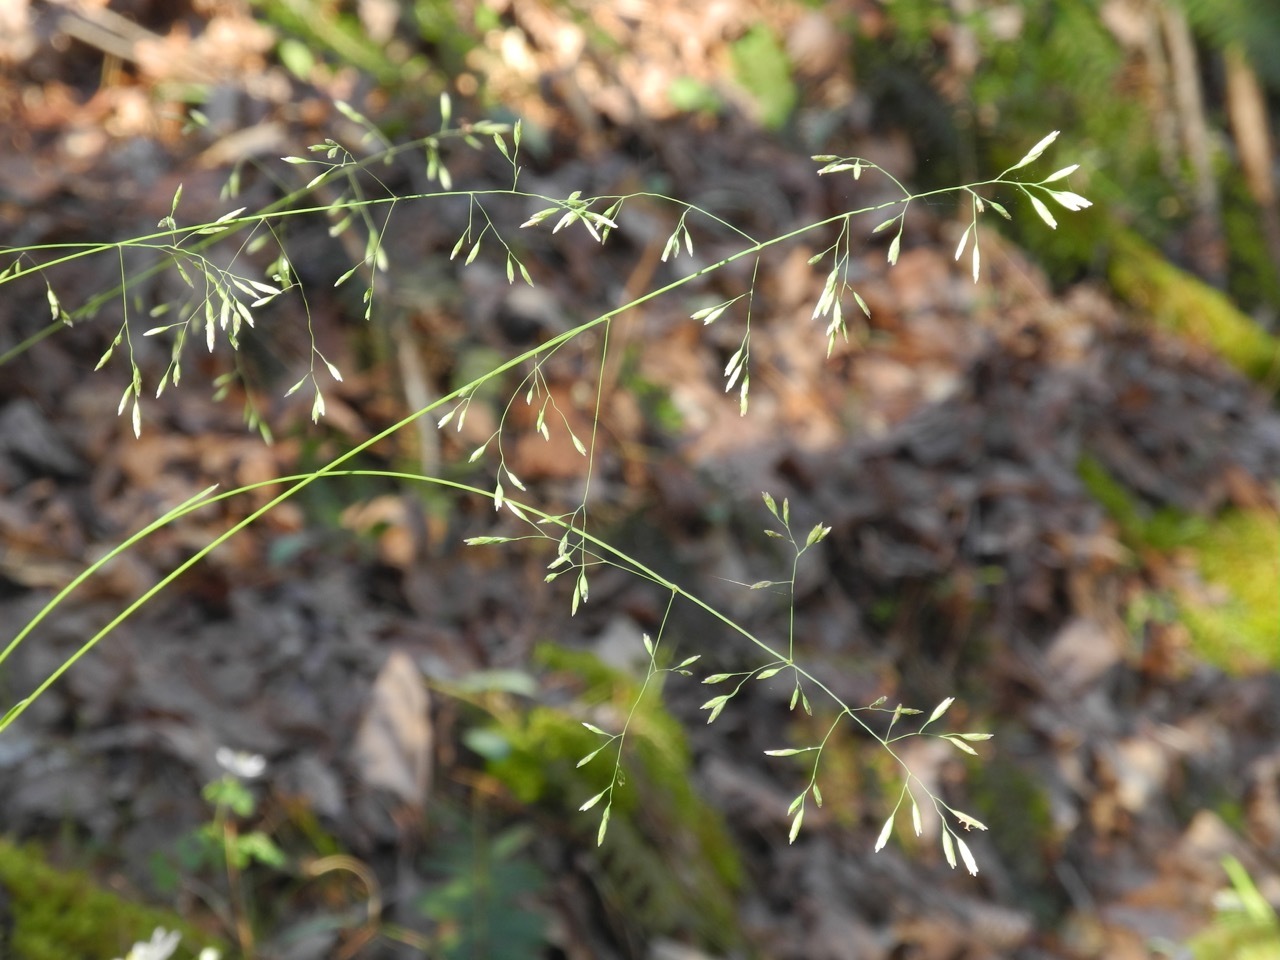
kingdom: Plantae
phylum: Tracheophyta
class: Liliopsida
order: Poales
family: Poaceae
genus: Poa
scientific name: Poa autumnalis
